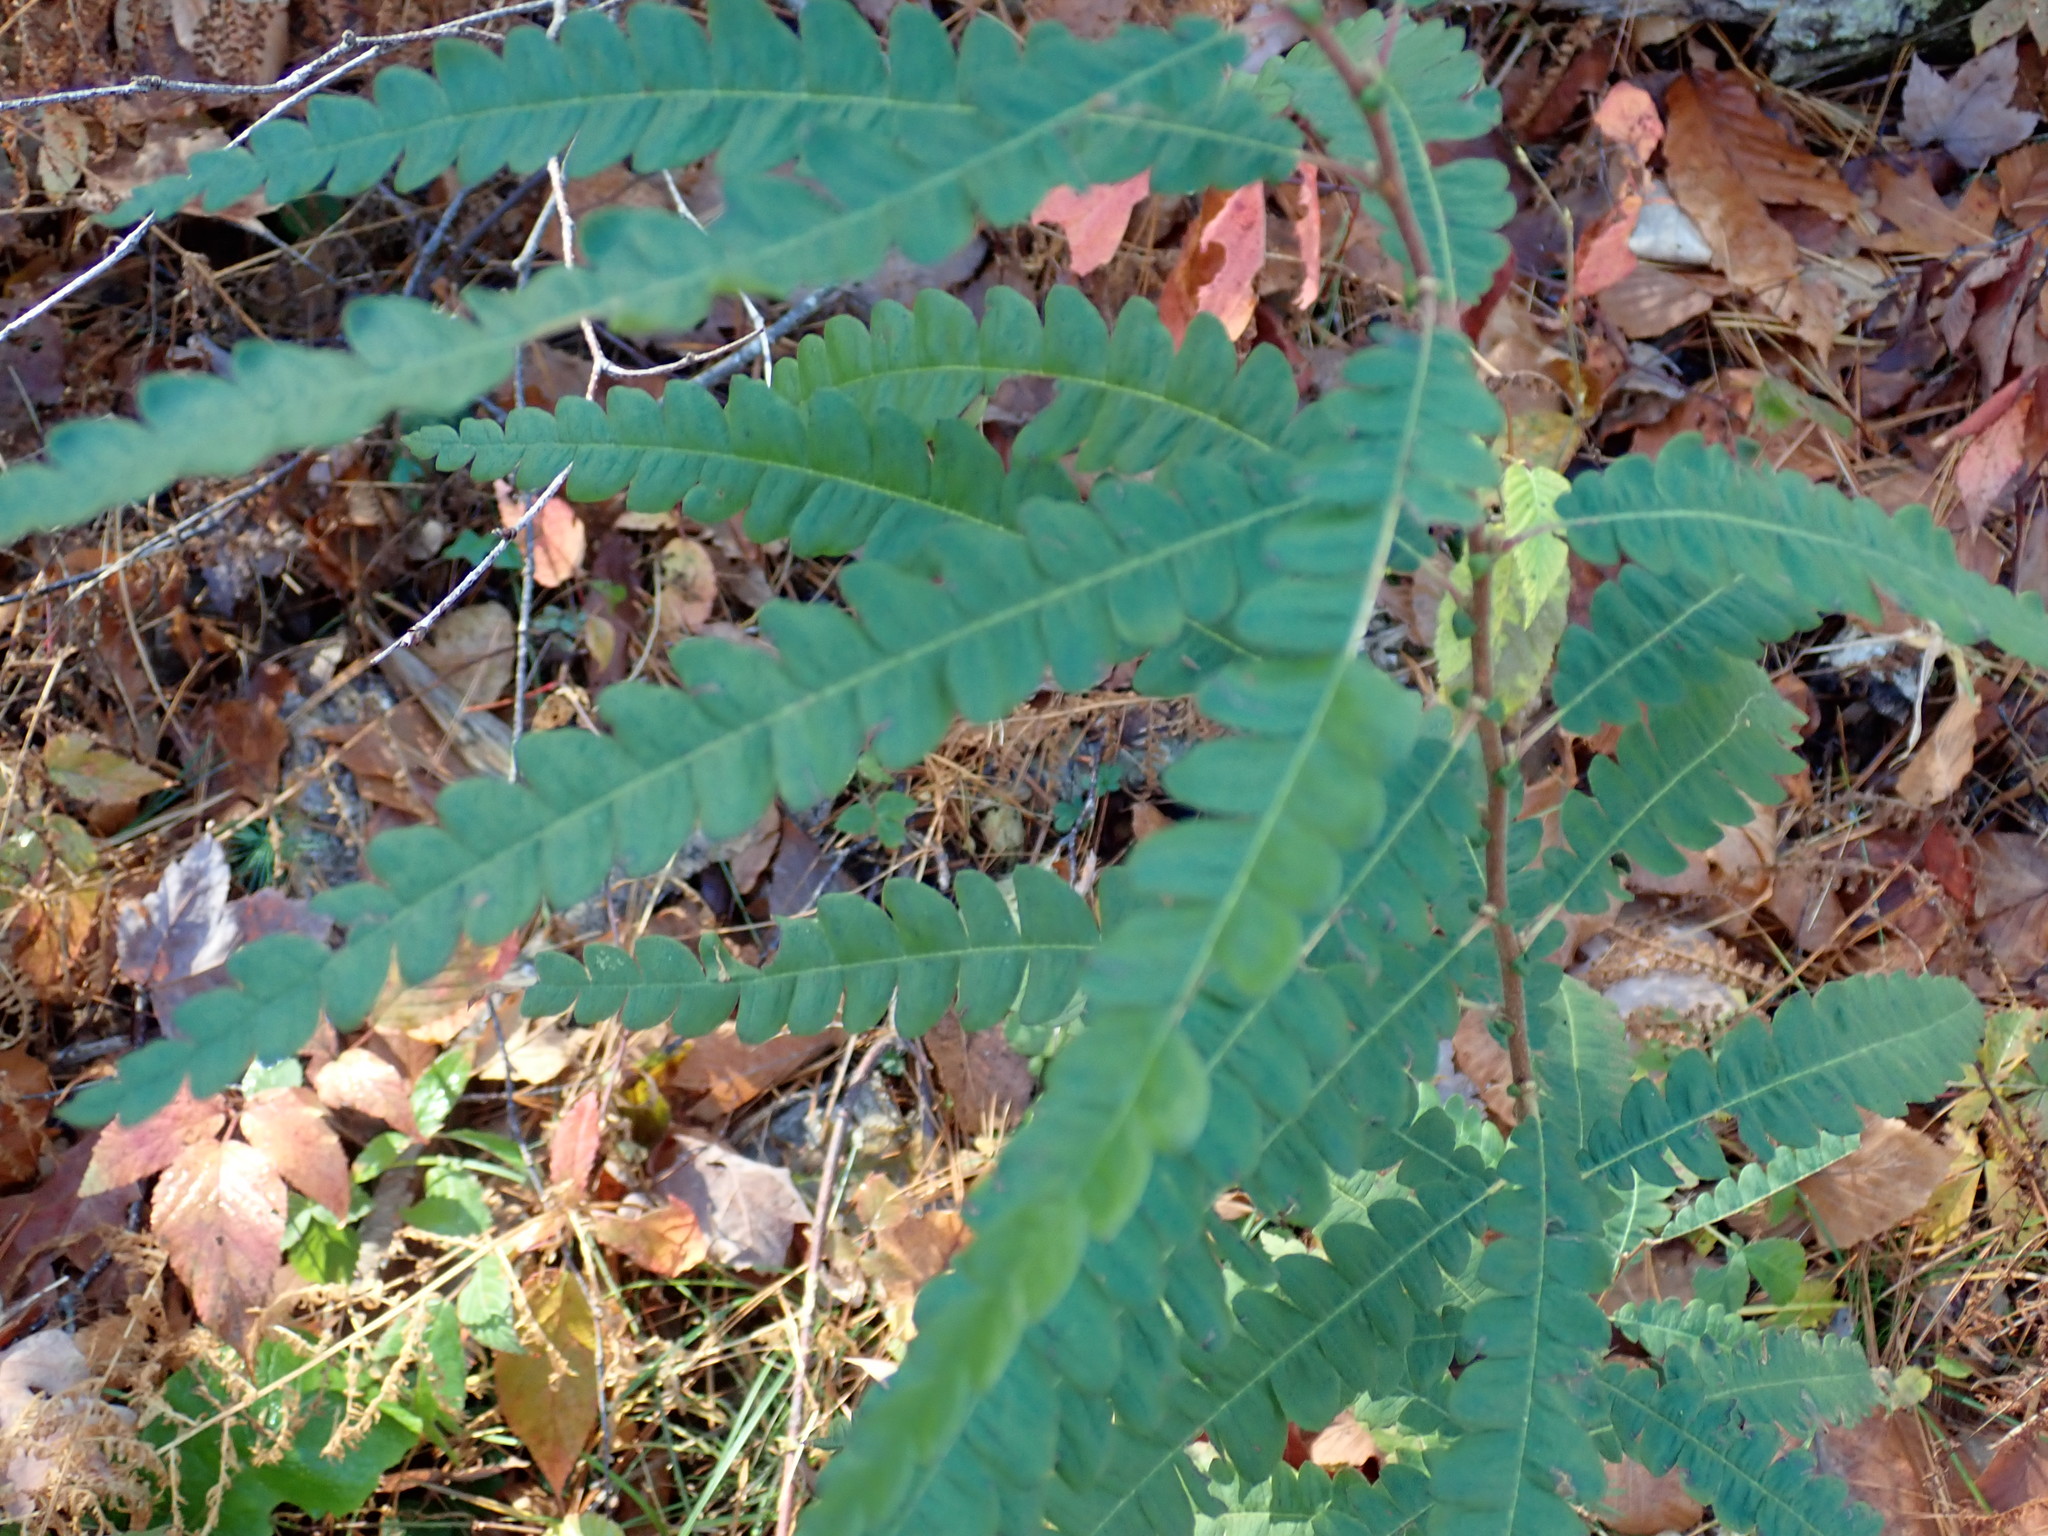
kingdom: Plantae
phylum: Tracheophyta
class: Magnoliopsida
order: Fagales
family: Myricaceae
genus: Comptonia
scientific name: Comptonia peregrina
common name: Sweet-fern
